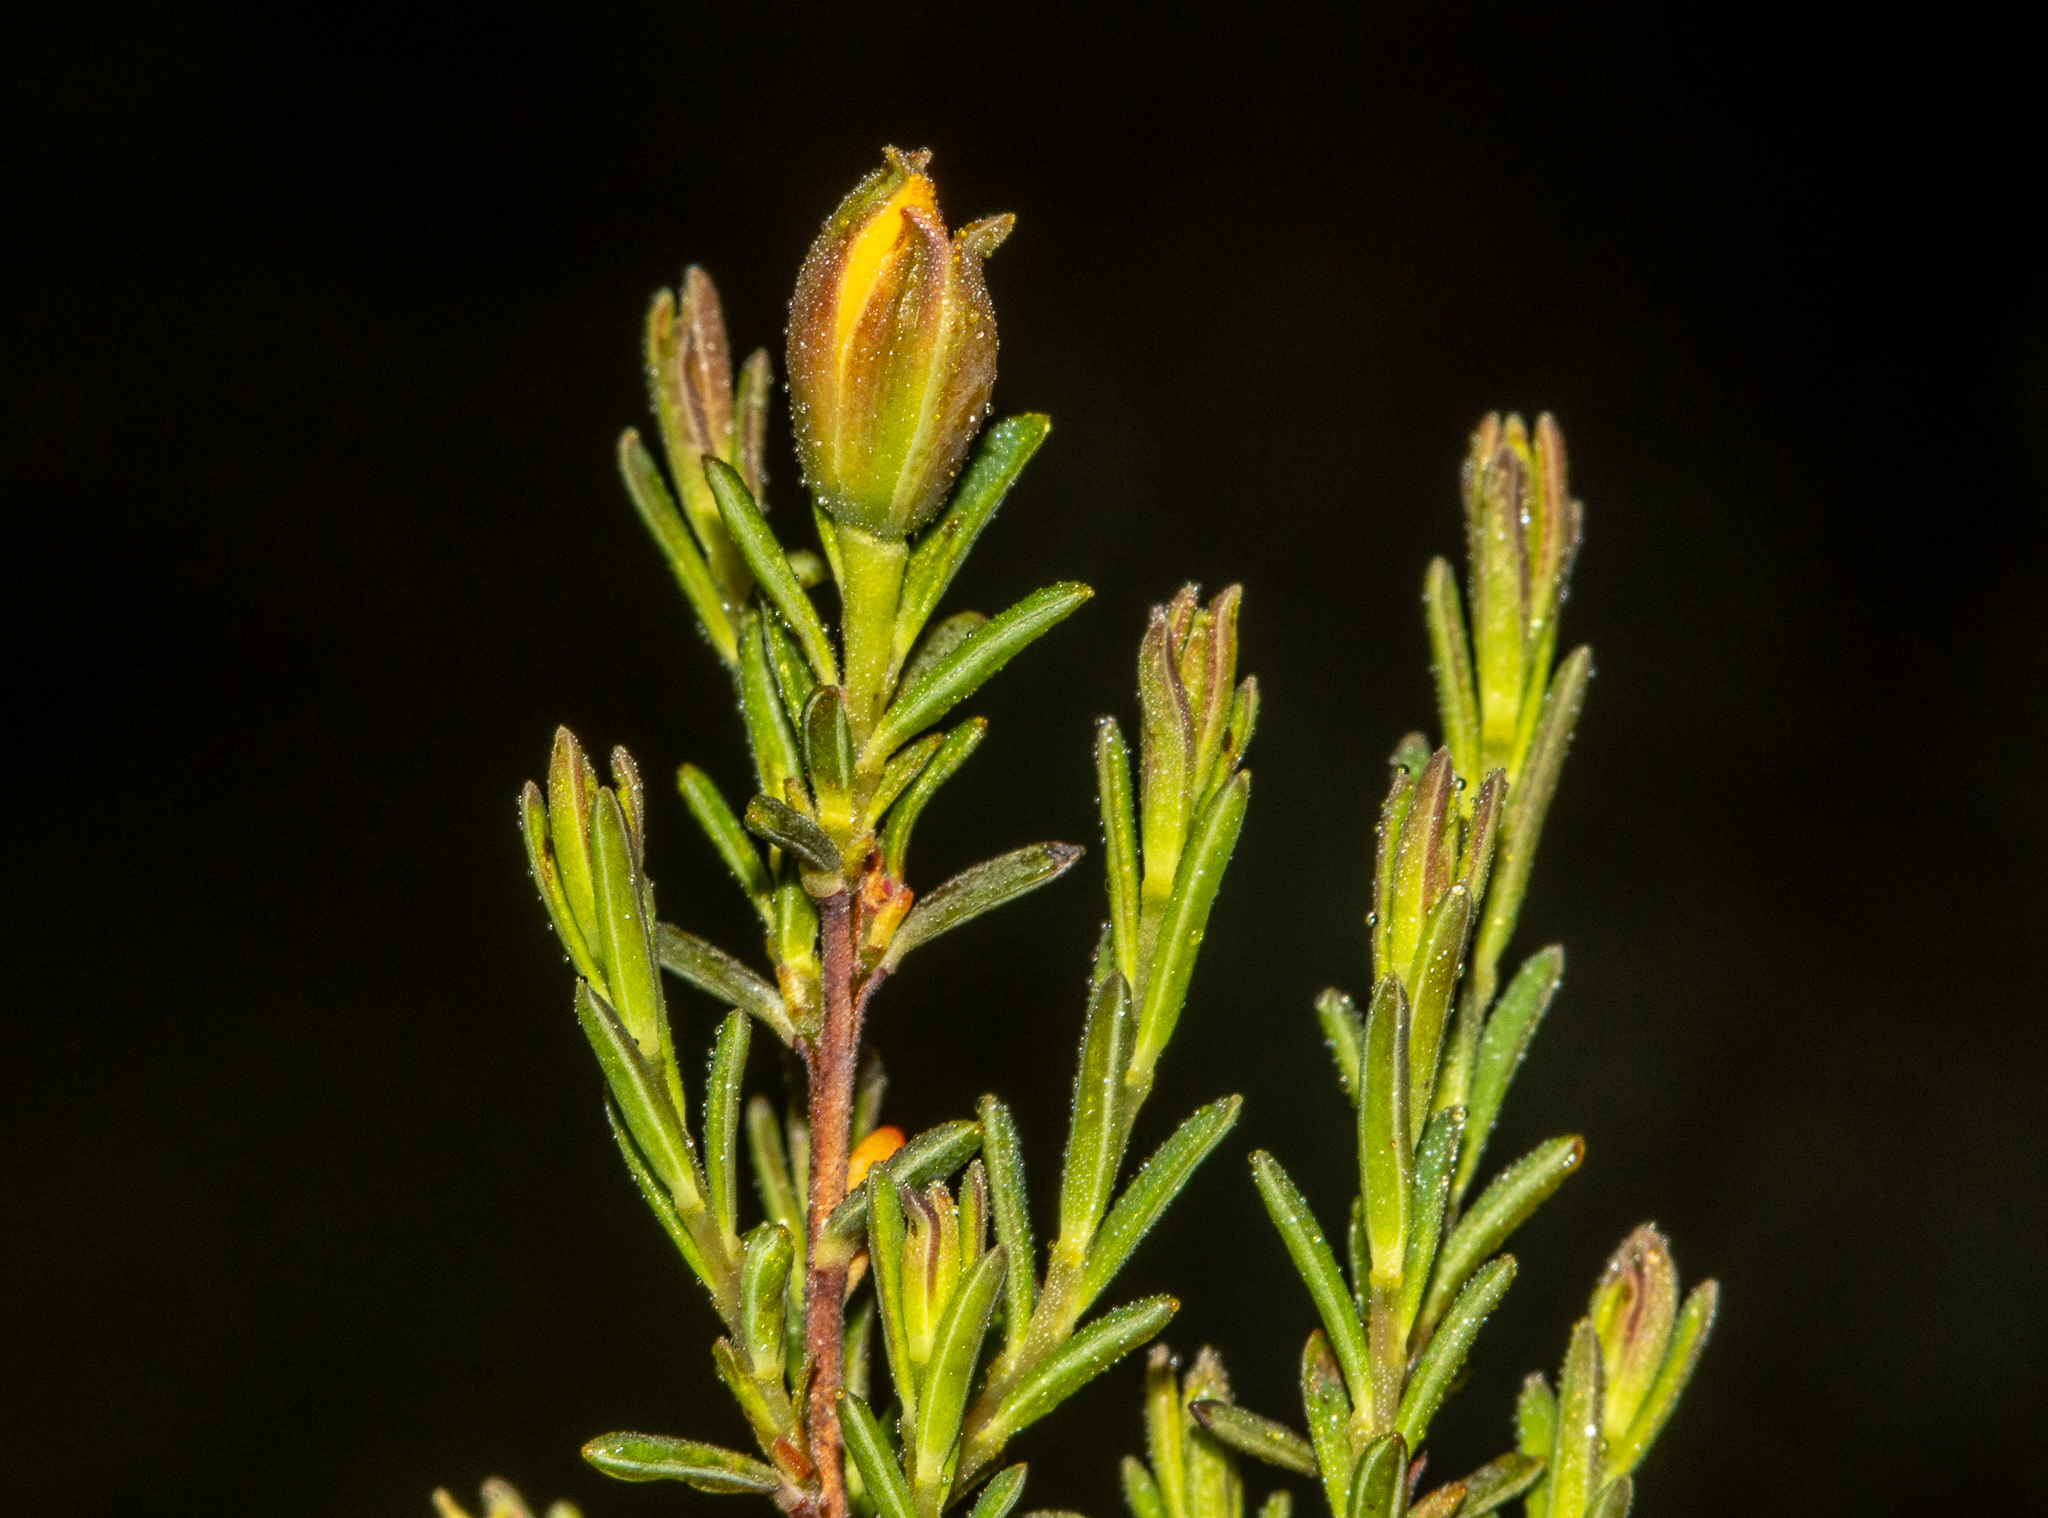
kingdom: Plantae
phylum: Tracheophyta
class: Magnoliopsida
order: Dilleniales
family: Dilleniaceae
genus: Hibbertia
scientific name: Hibbertia devitata
